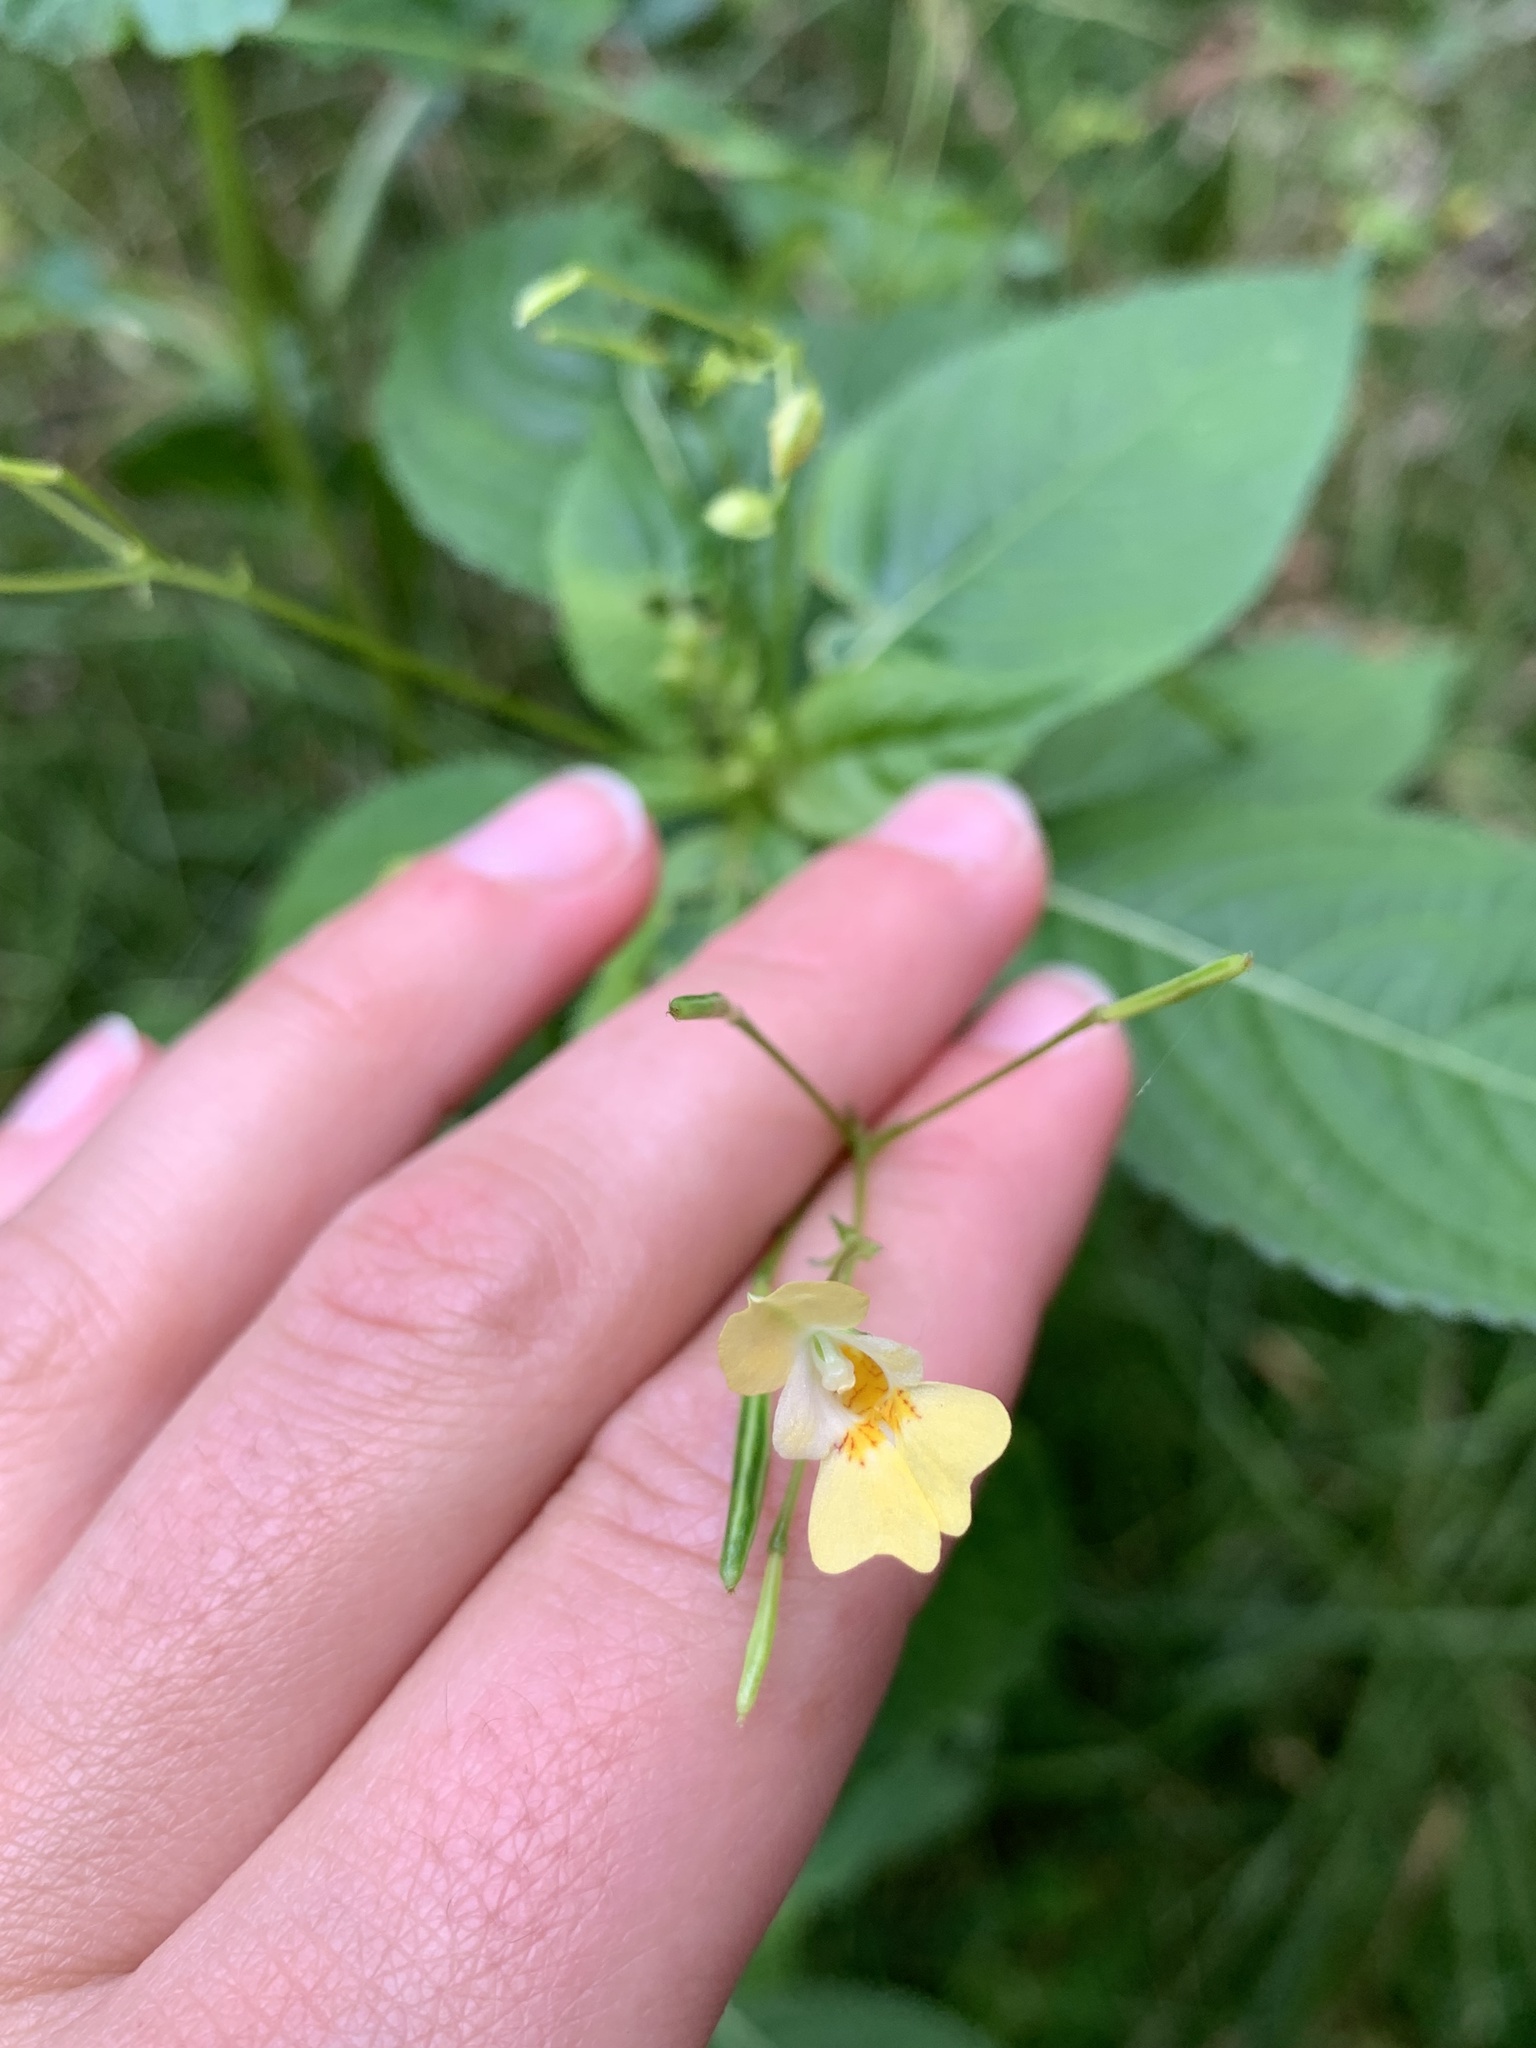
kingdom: Plantae
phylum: Tracheophyta
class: Magnoliopsida
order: Ericales
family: Balsaminaceae
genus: Impatiens
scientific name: Impatiens parviflora
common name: Small balsam
